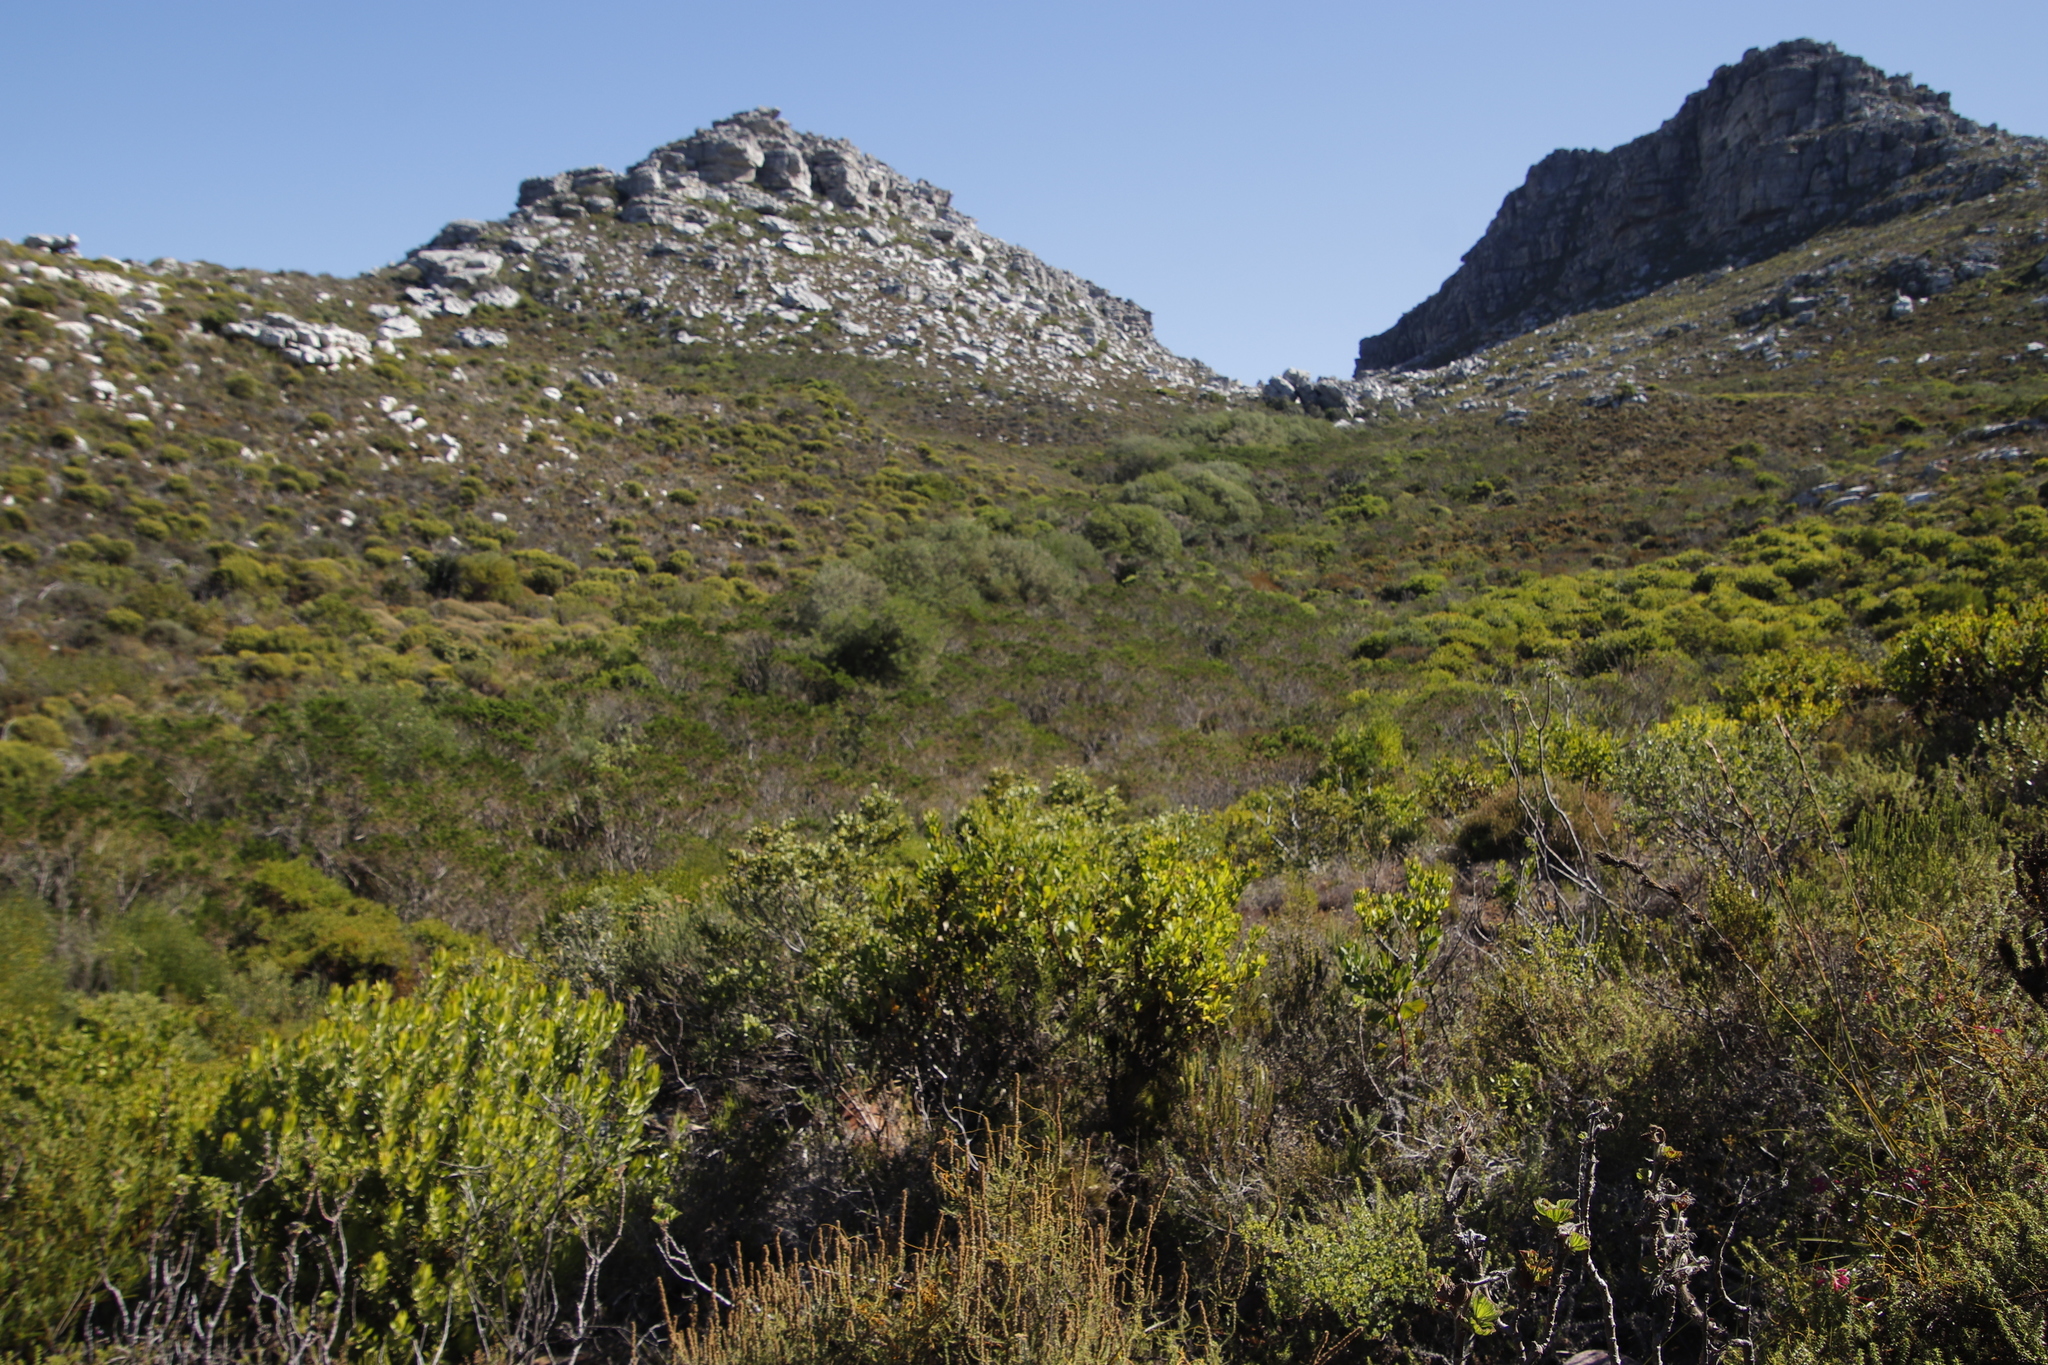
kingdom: Plantae
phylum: Tracheophyta
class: Magnoliopsida
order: Fabales
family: Fabaceae
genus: Psoralea
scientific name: Psoralea pinnata
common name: African scurfpea
